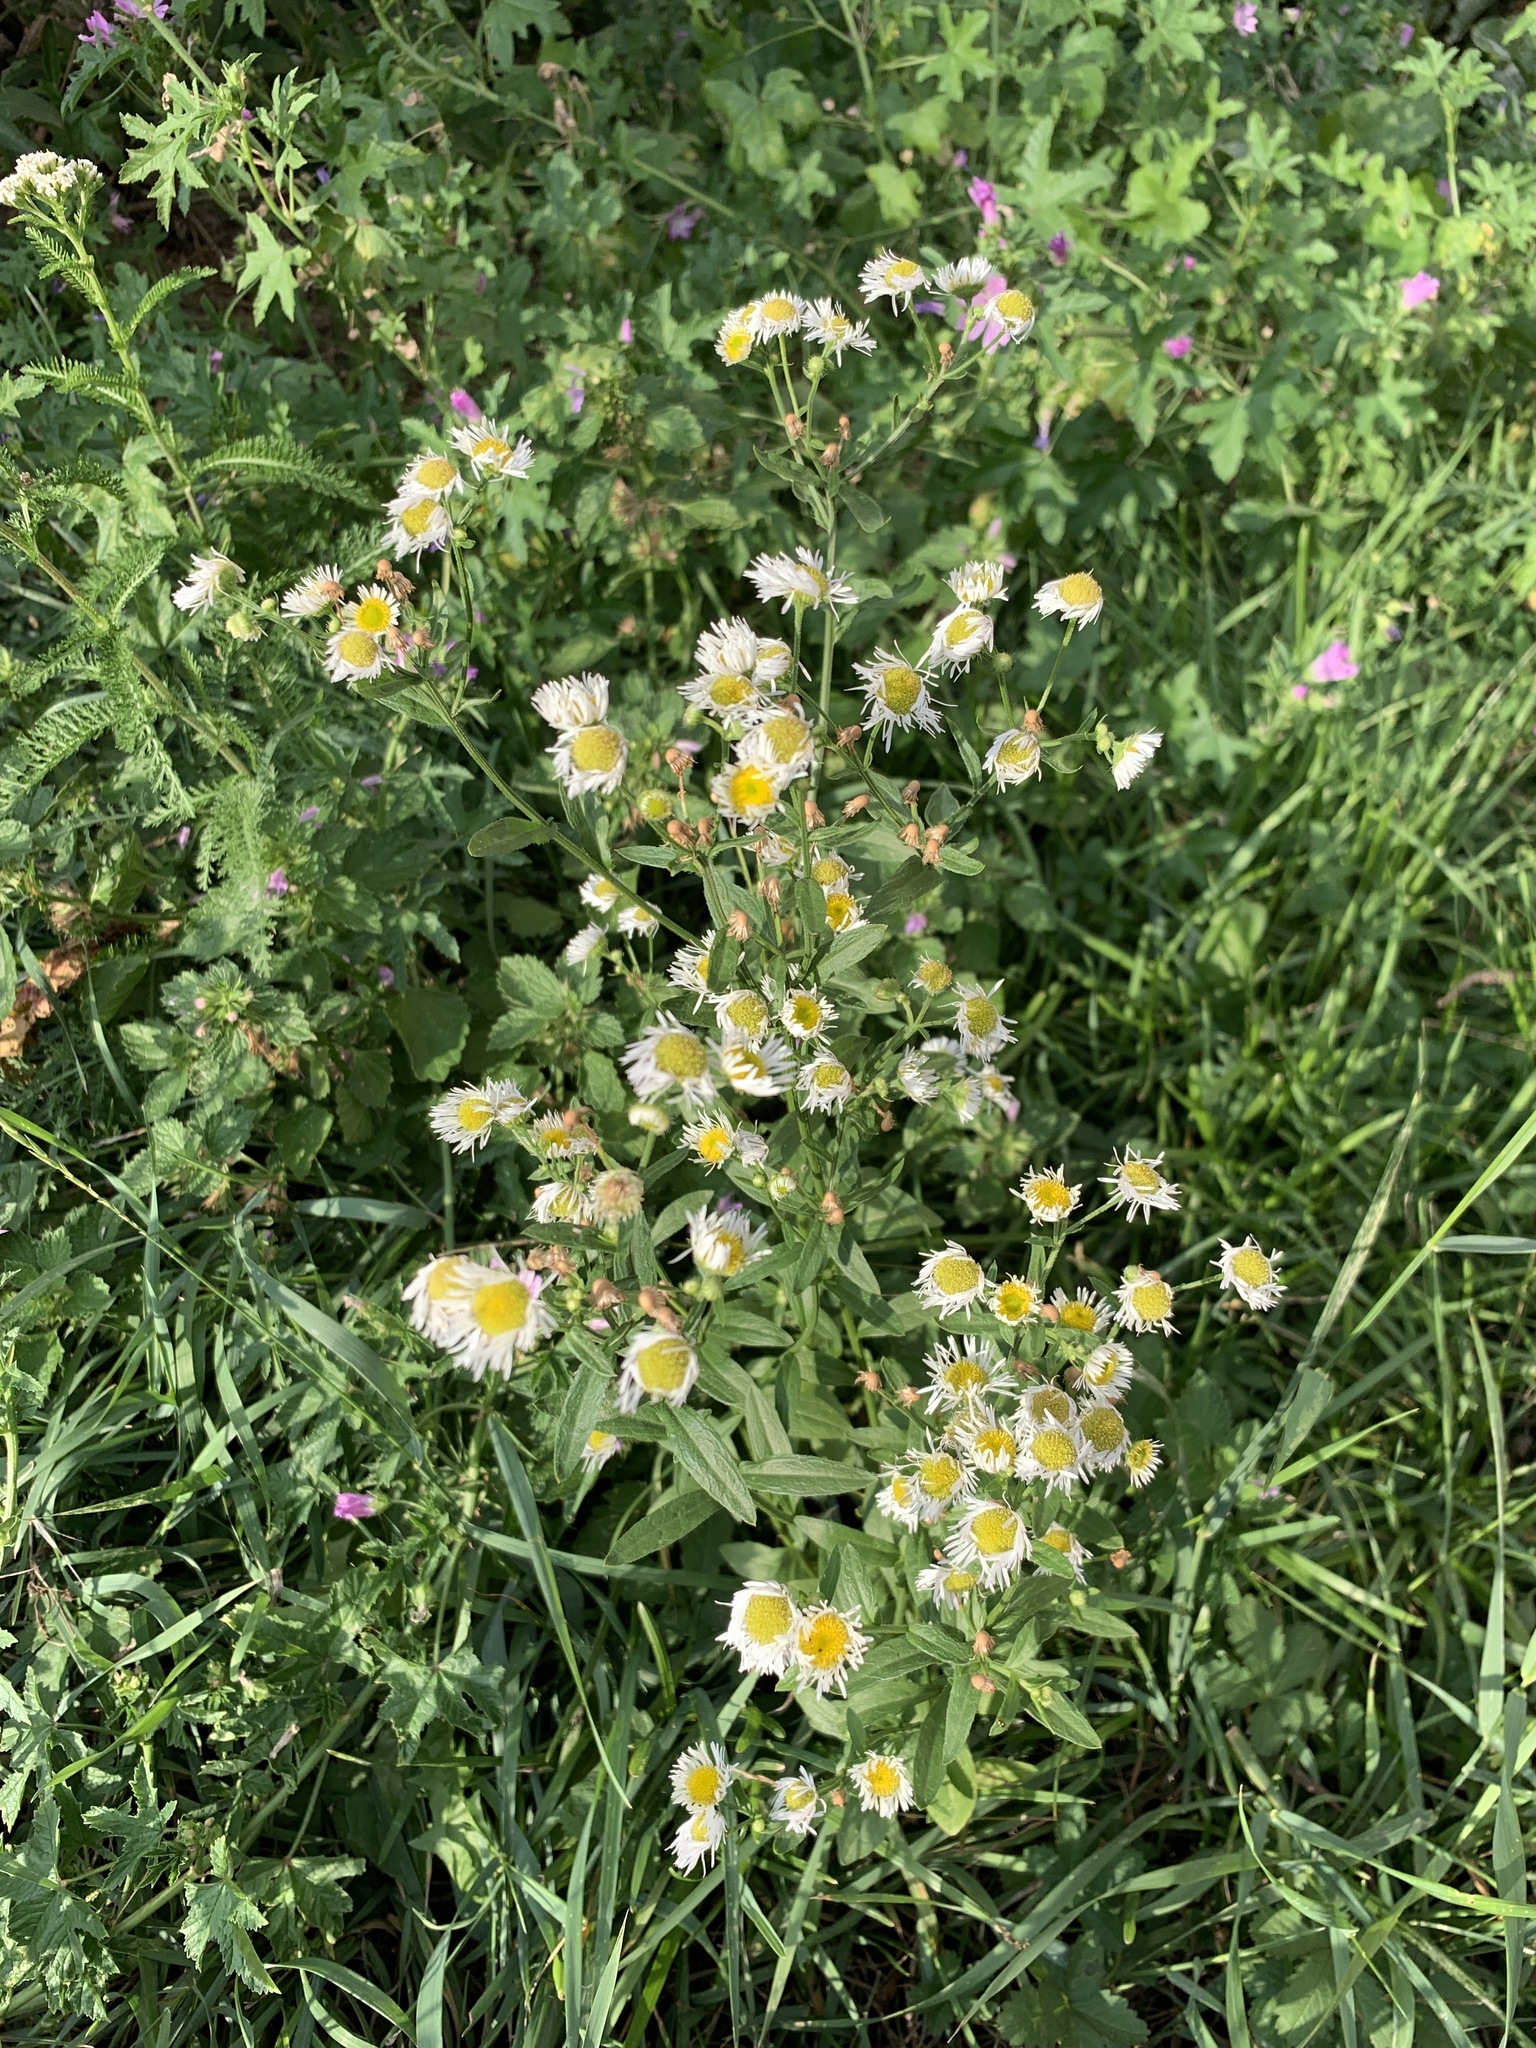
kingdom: Plantae
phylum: Tracheophyta
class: Magnoliopsida
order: Asterales
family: Asteraceae
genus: Erigeron
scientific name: Erigeron annuus
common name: Tall fleabane
